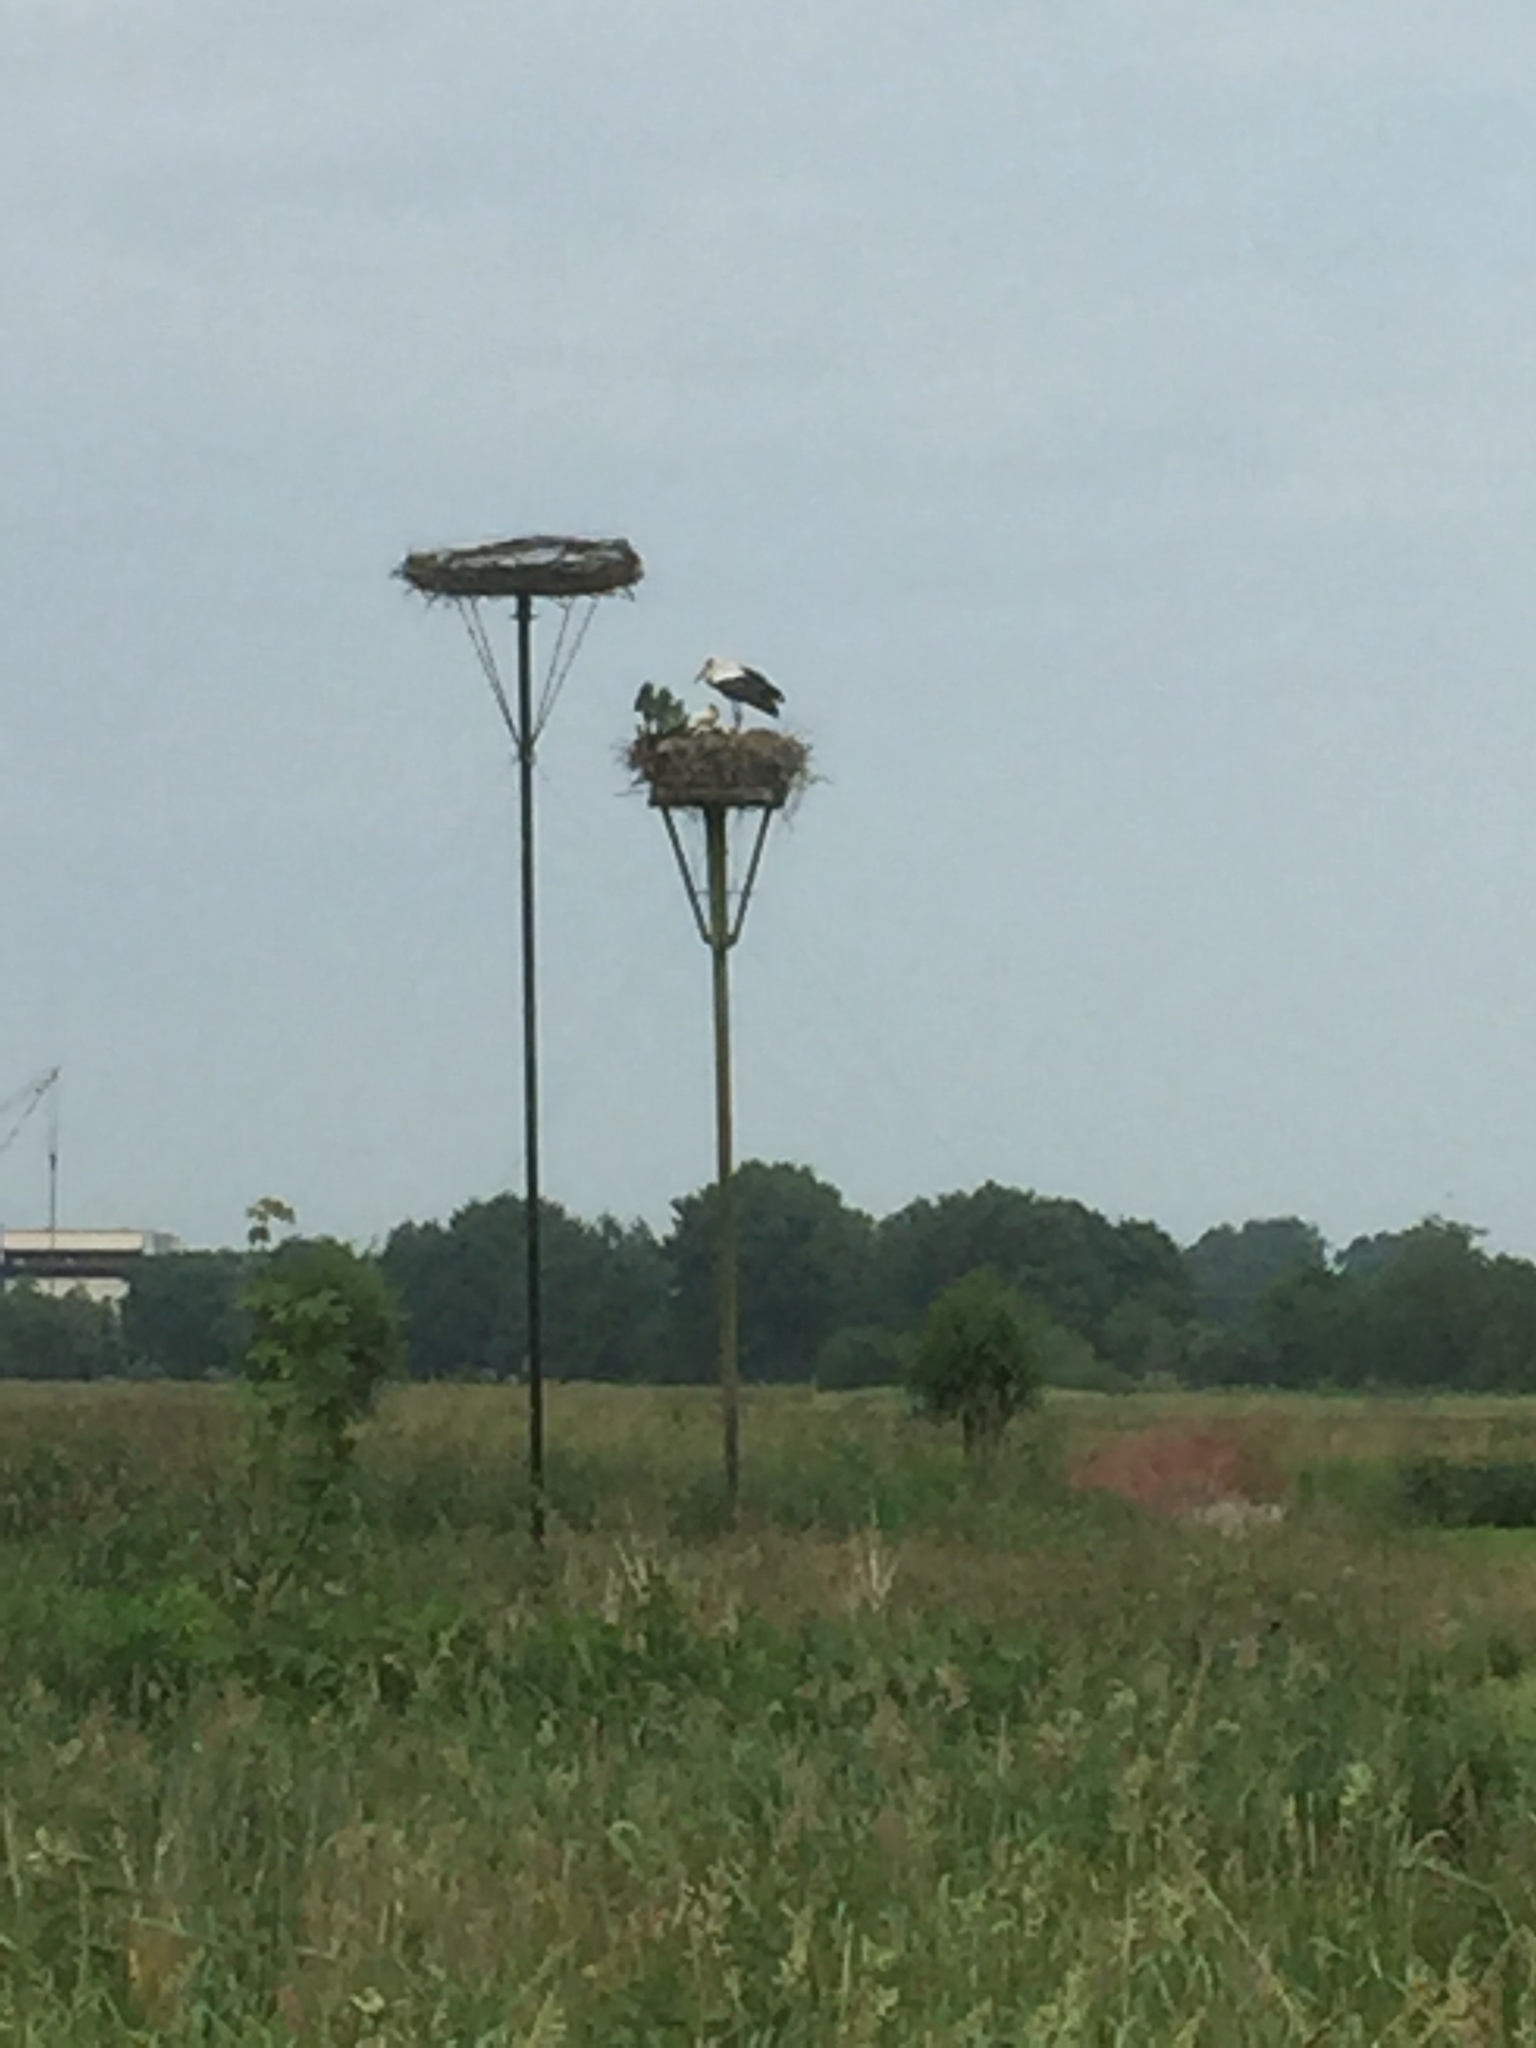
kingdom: Animalia
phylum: Chordata
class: Aves
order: Ciconiiformes
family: Ciconiidae
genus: Ciconia
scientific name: Ciconia ciconia
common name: White stork
